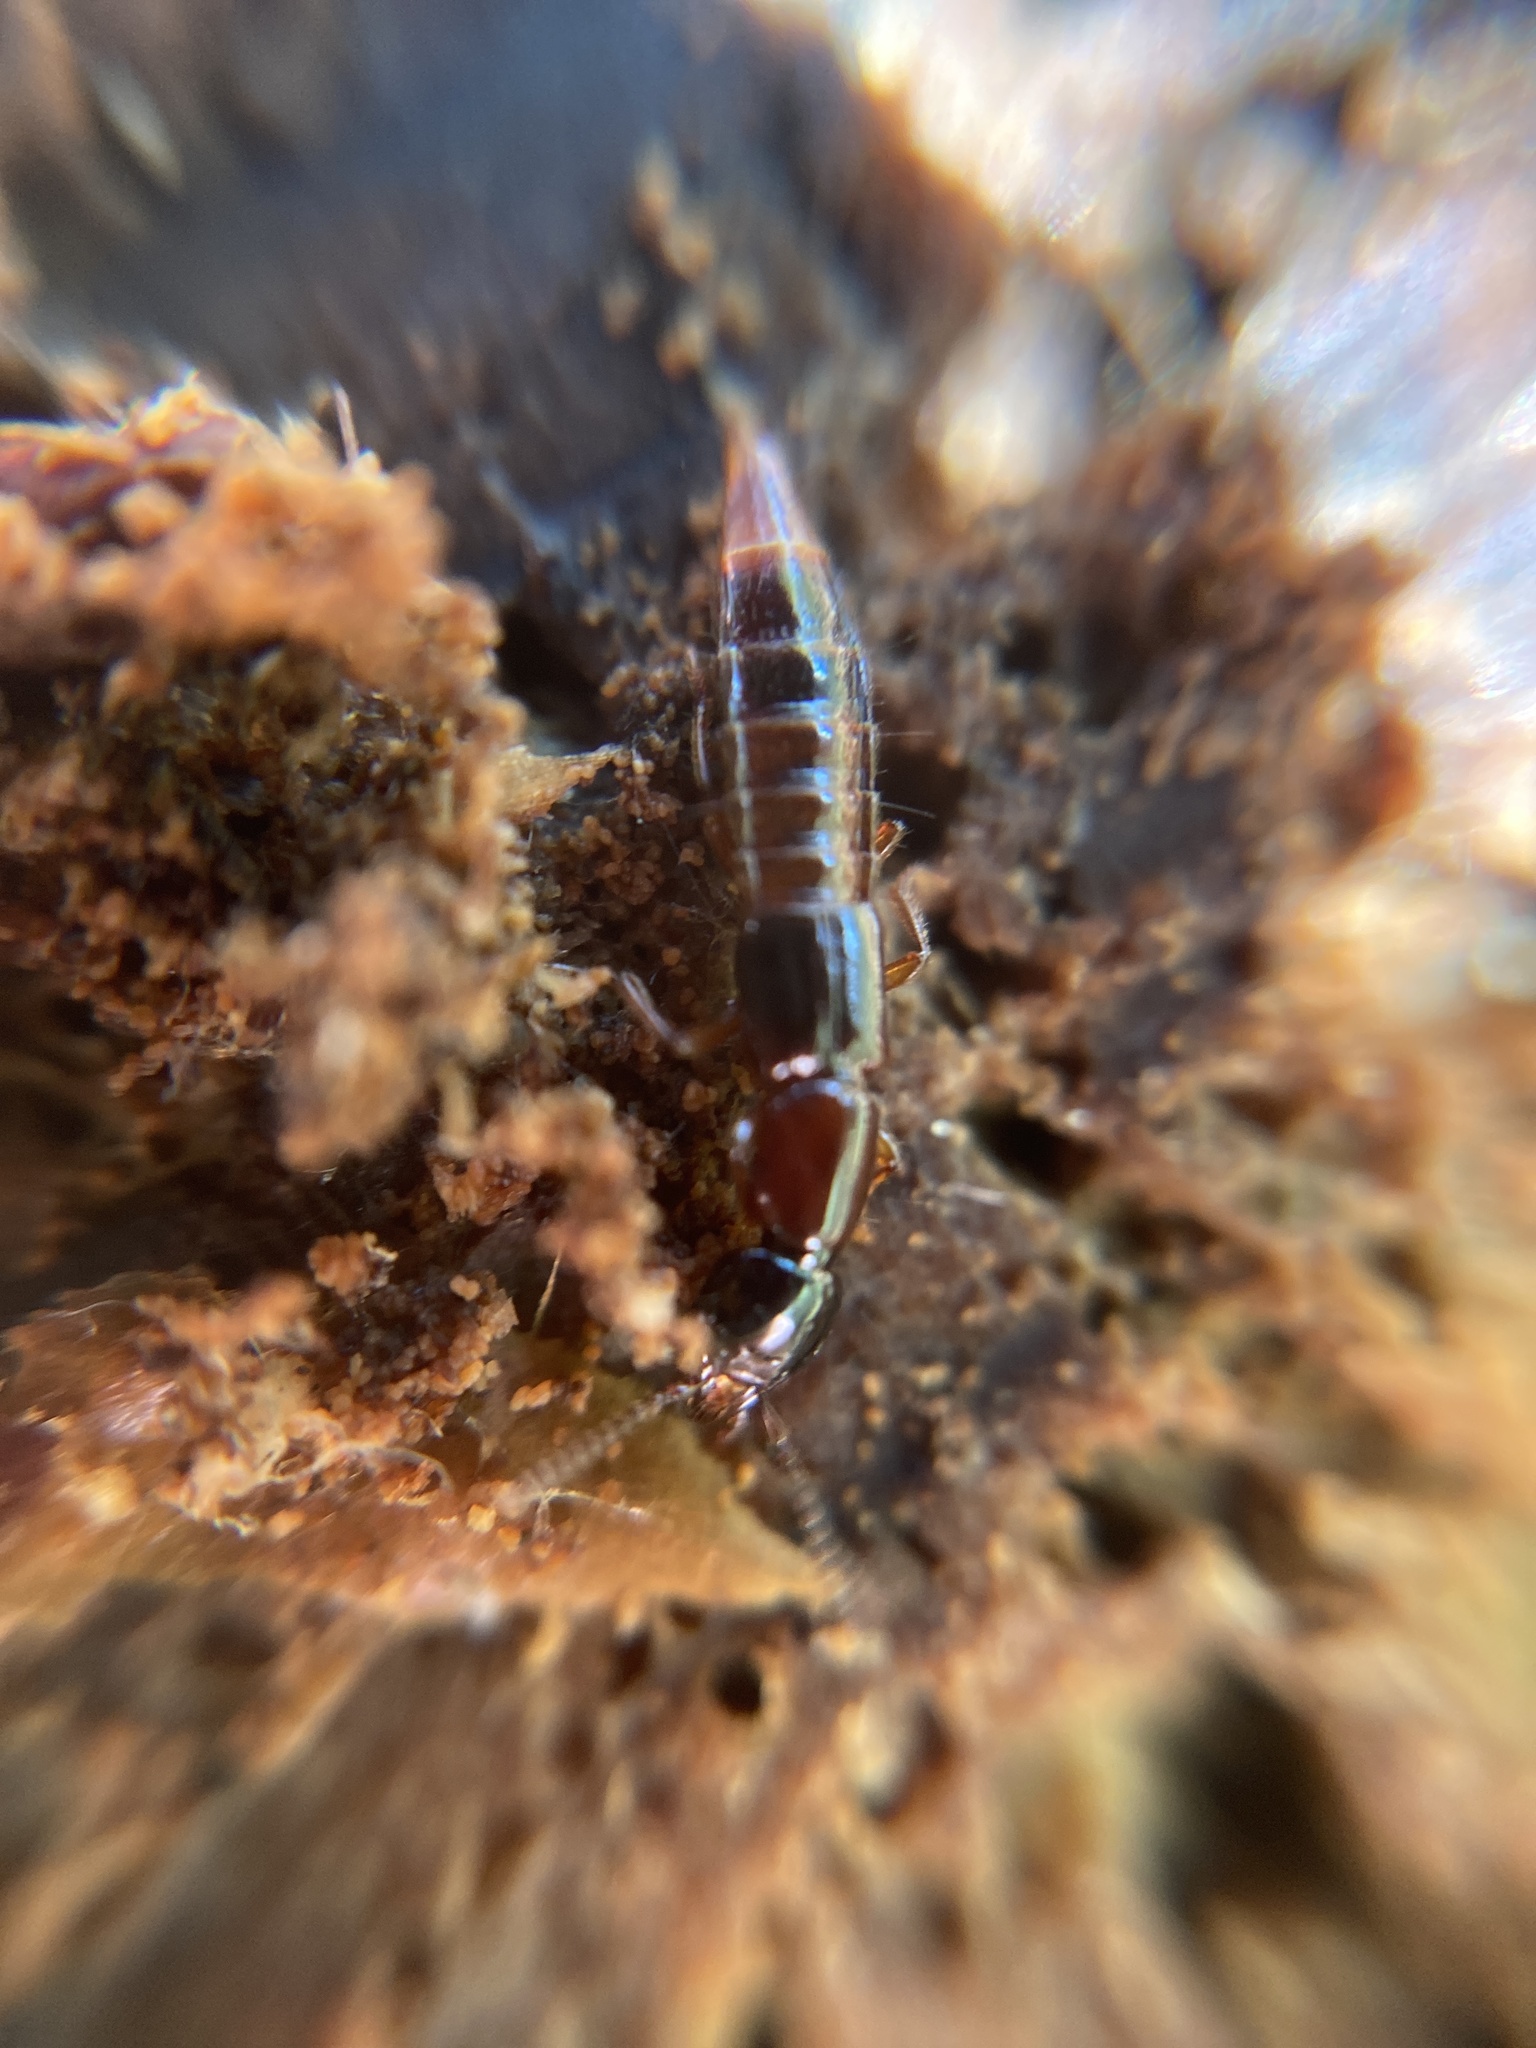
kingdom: Animalia
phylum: Arthropoda
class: Insecta
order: Coleoptera
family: Staphylinidae
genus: Atrecus
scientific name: Atrecus affinis
